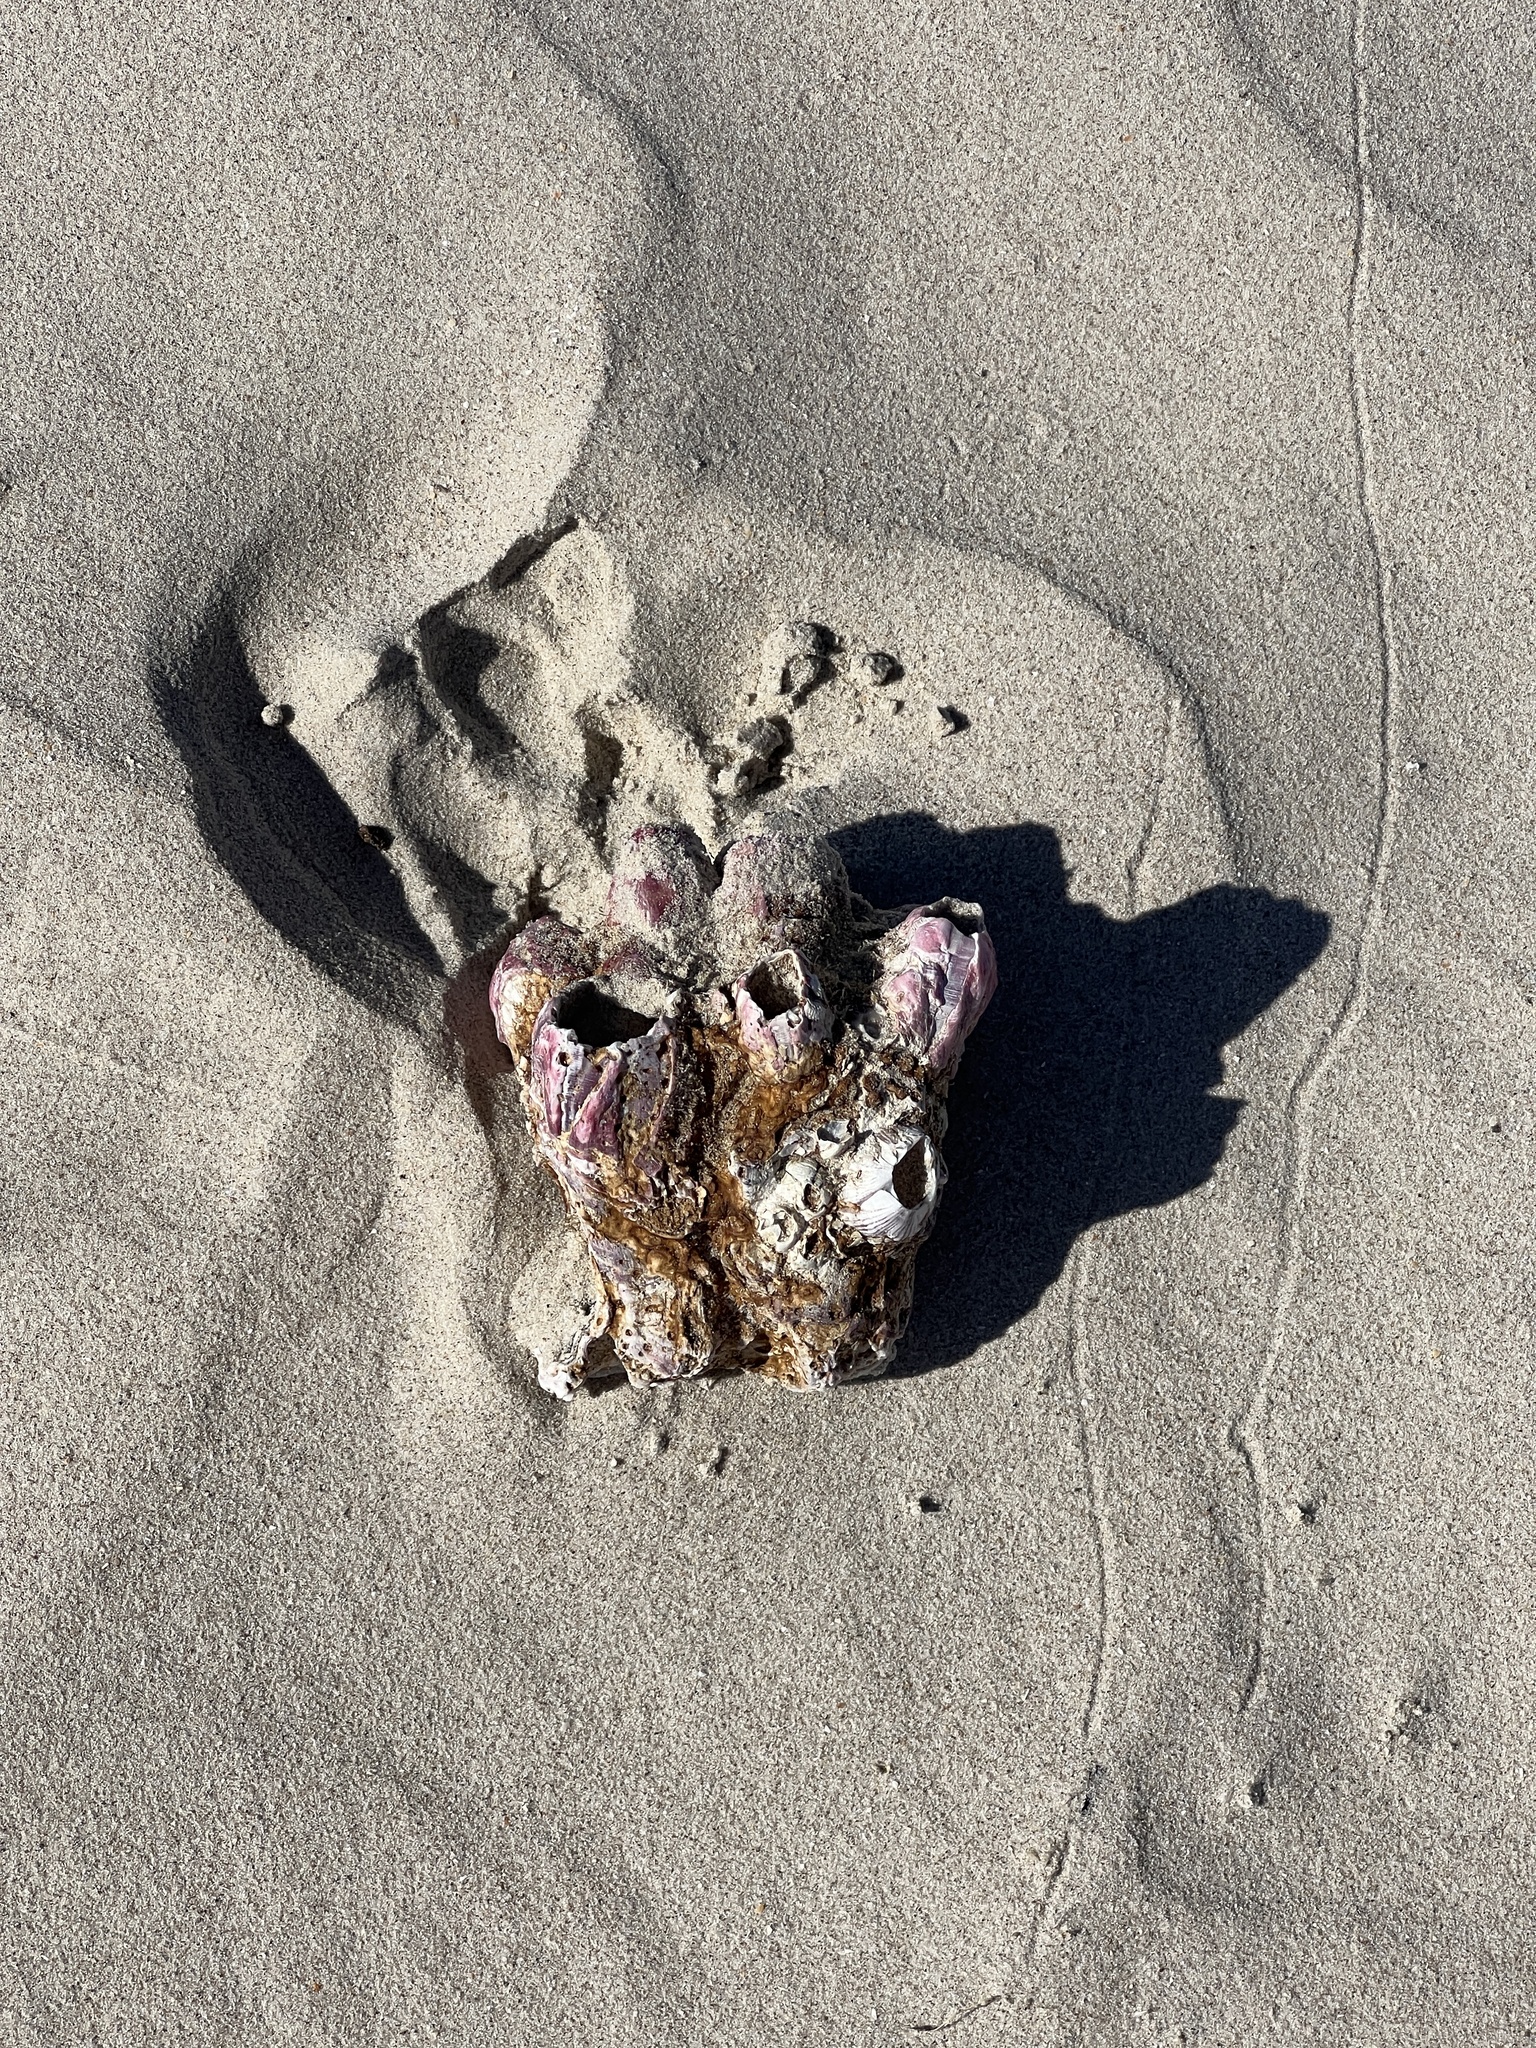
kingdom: Animalia
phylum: Arthropoda
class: Maxillopoda
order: Sessilia
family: Balanidae
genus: Megabalanus
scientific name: Megabalanus tintinnabulum
